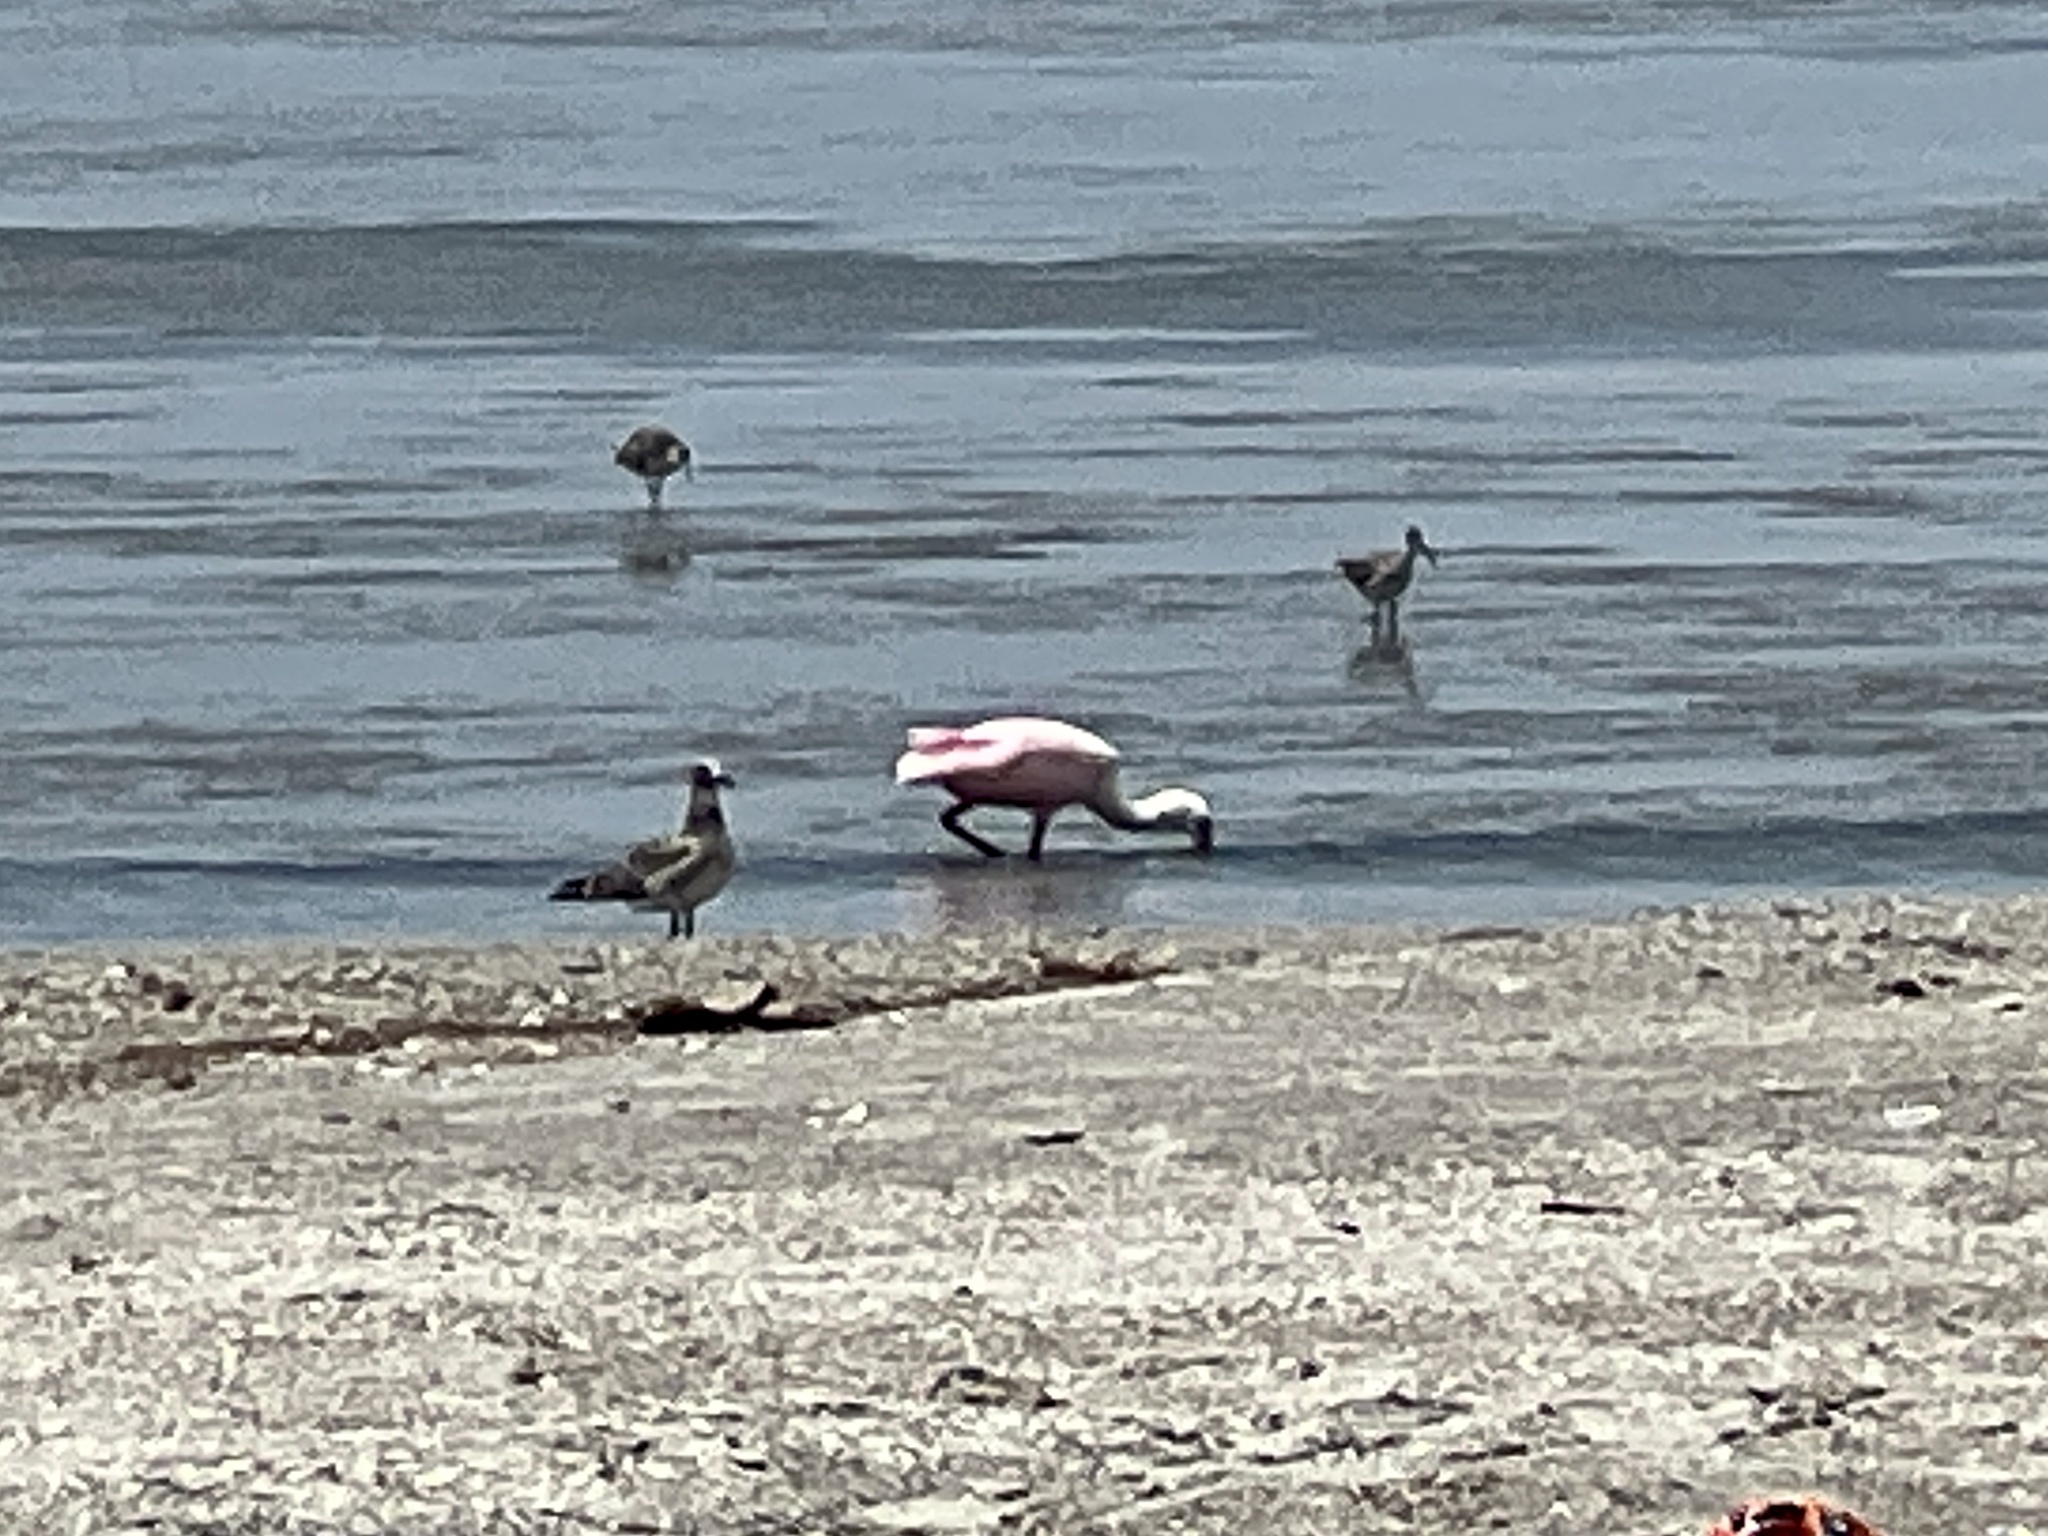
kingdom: Animalia
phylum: Chordata
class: Aves
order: Pelecaniformes
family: Threskiornithidae
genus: Platalea
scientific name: Platalea ajaja
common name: Roseate spoonbill
